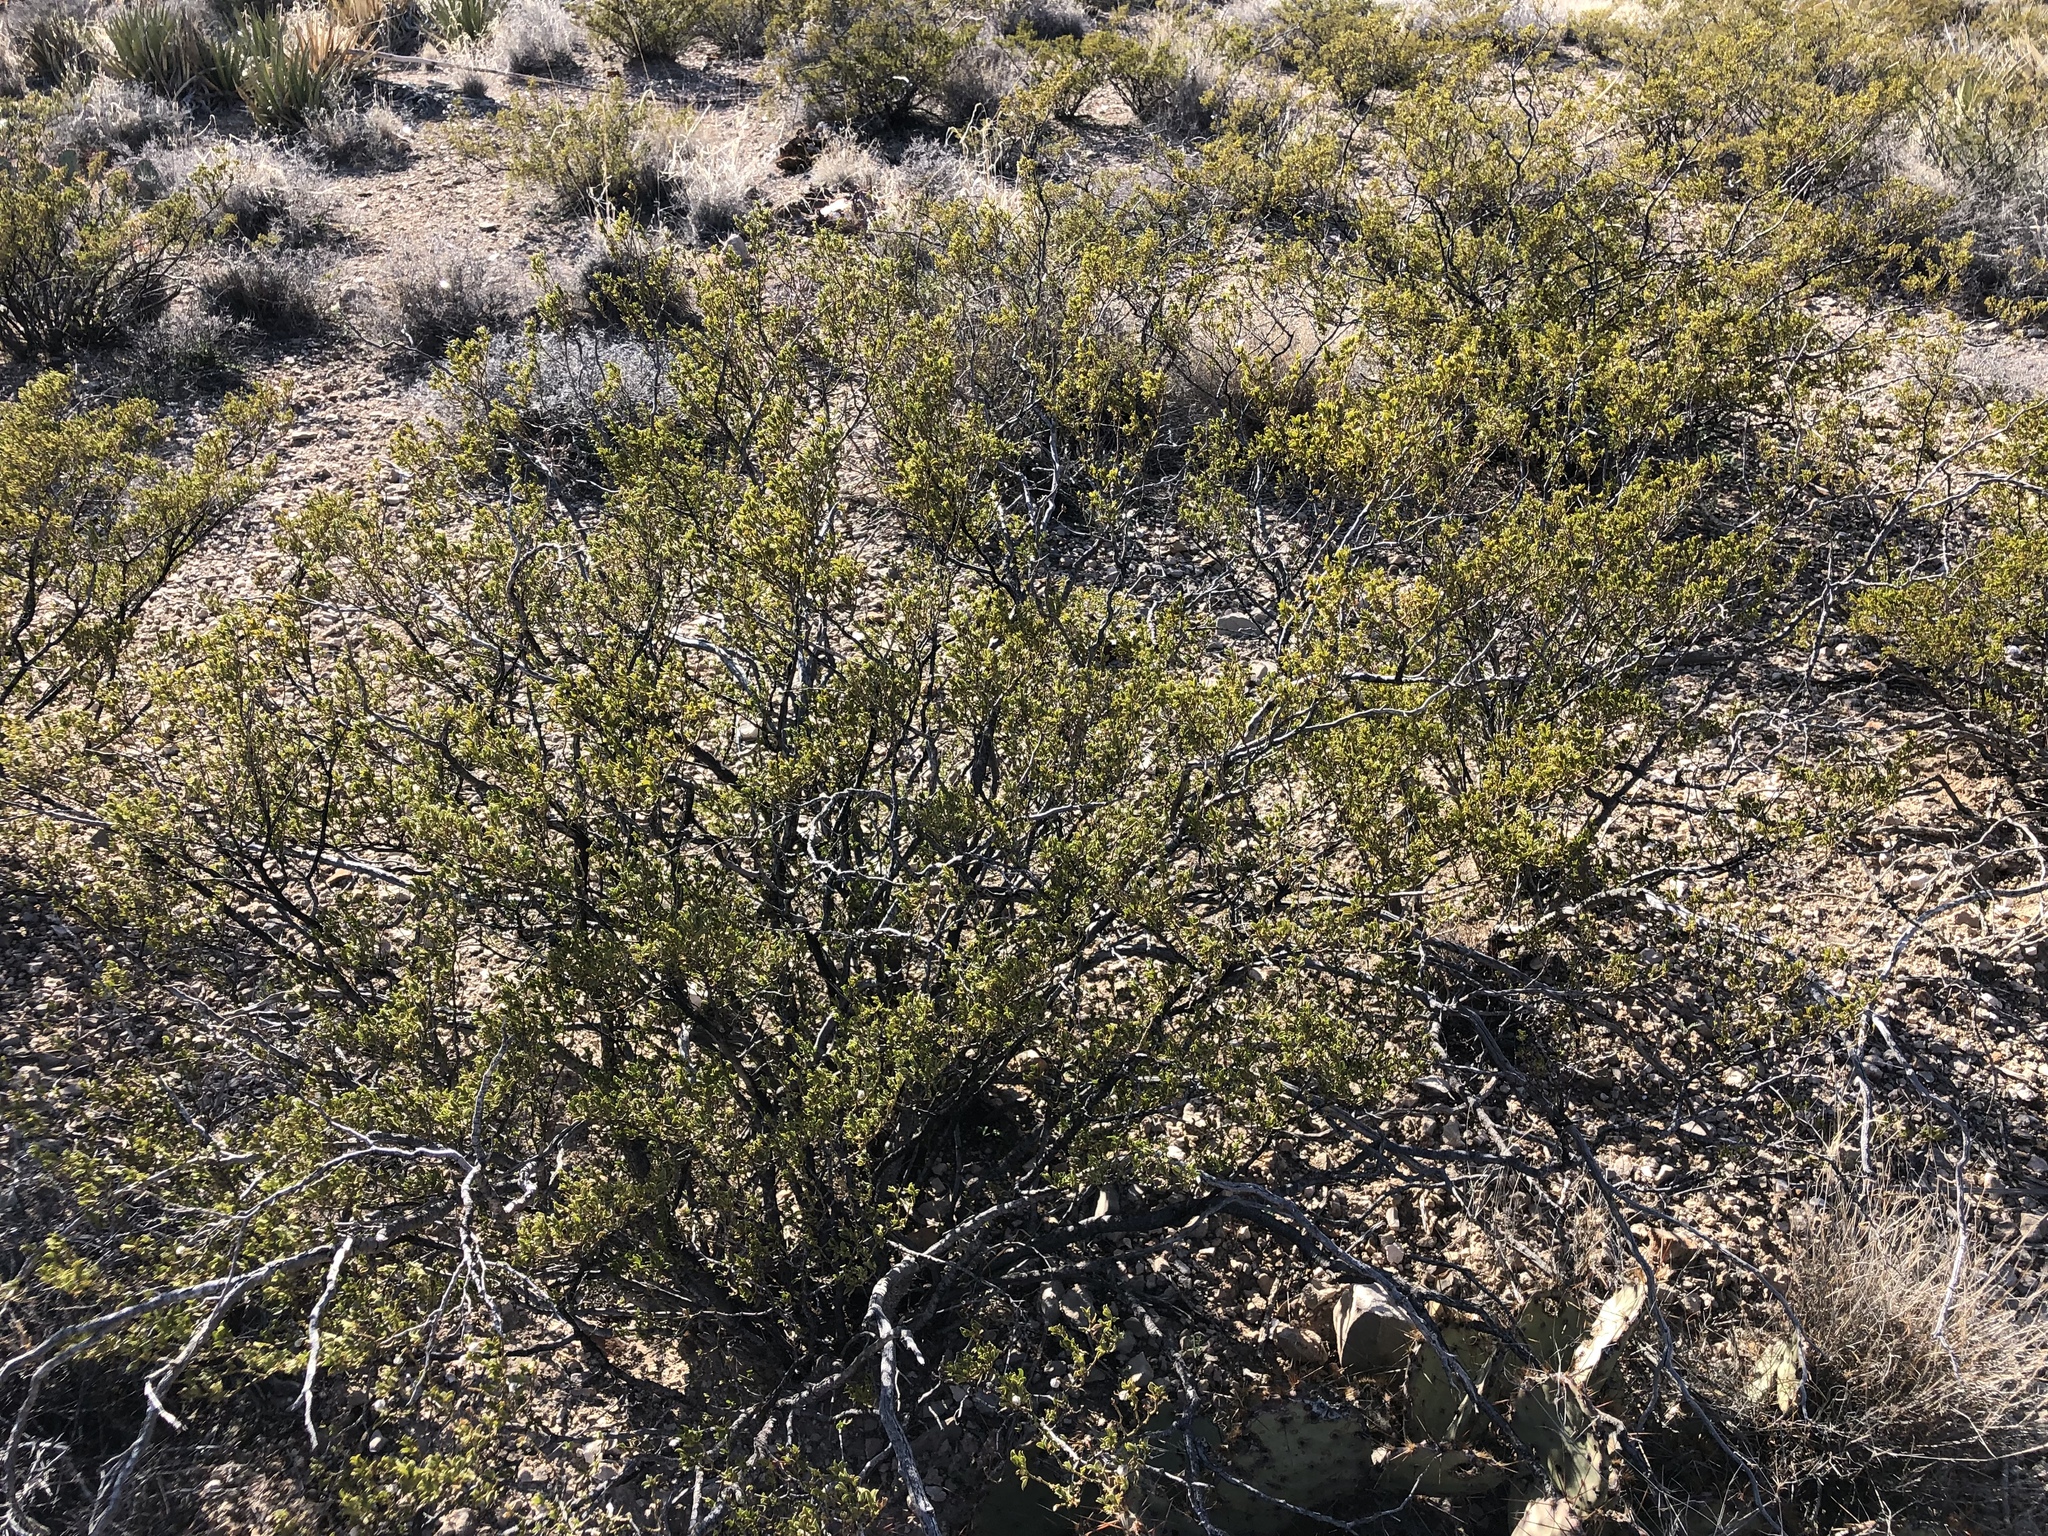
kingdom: Plantae
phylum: Tracheophyta
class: Magnoliopsida
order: Zygophyllales
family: Zygophyllaceae
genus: Larrea
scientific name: Larrea tridentata
